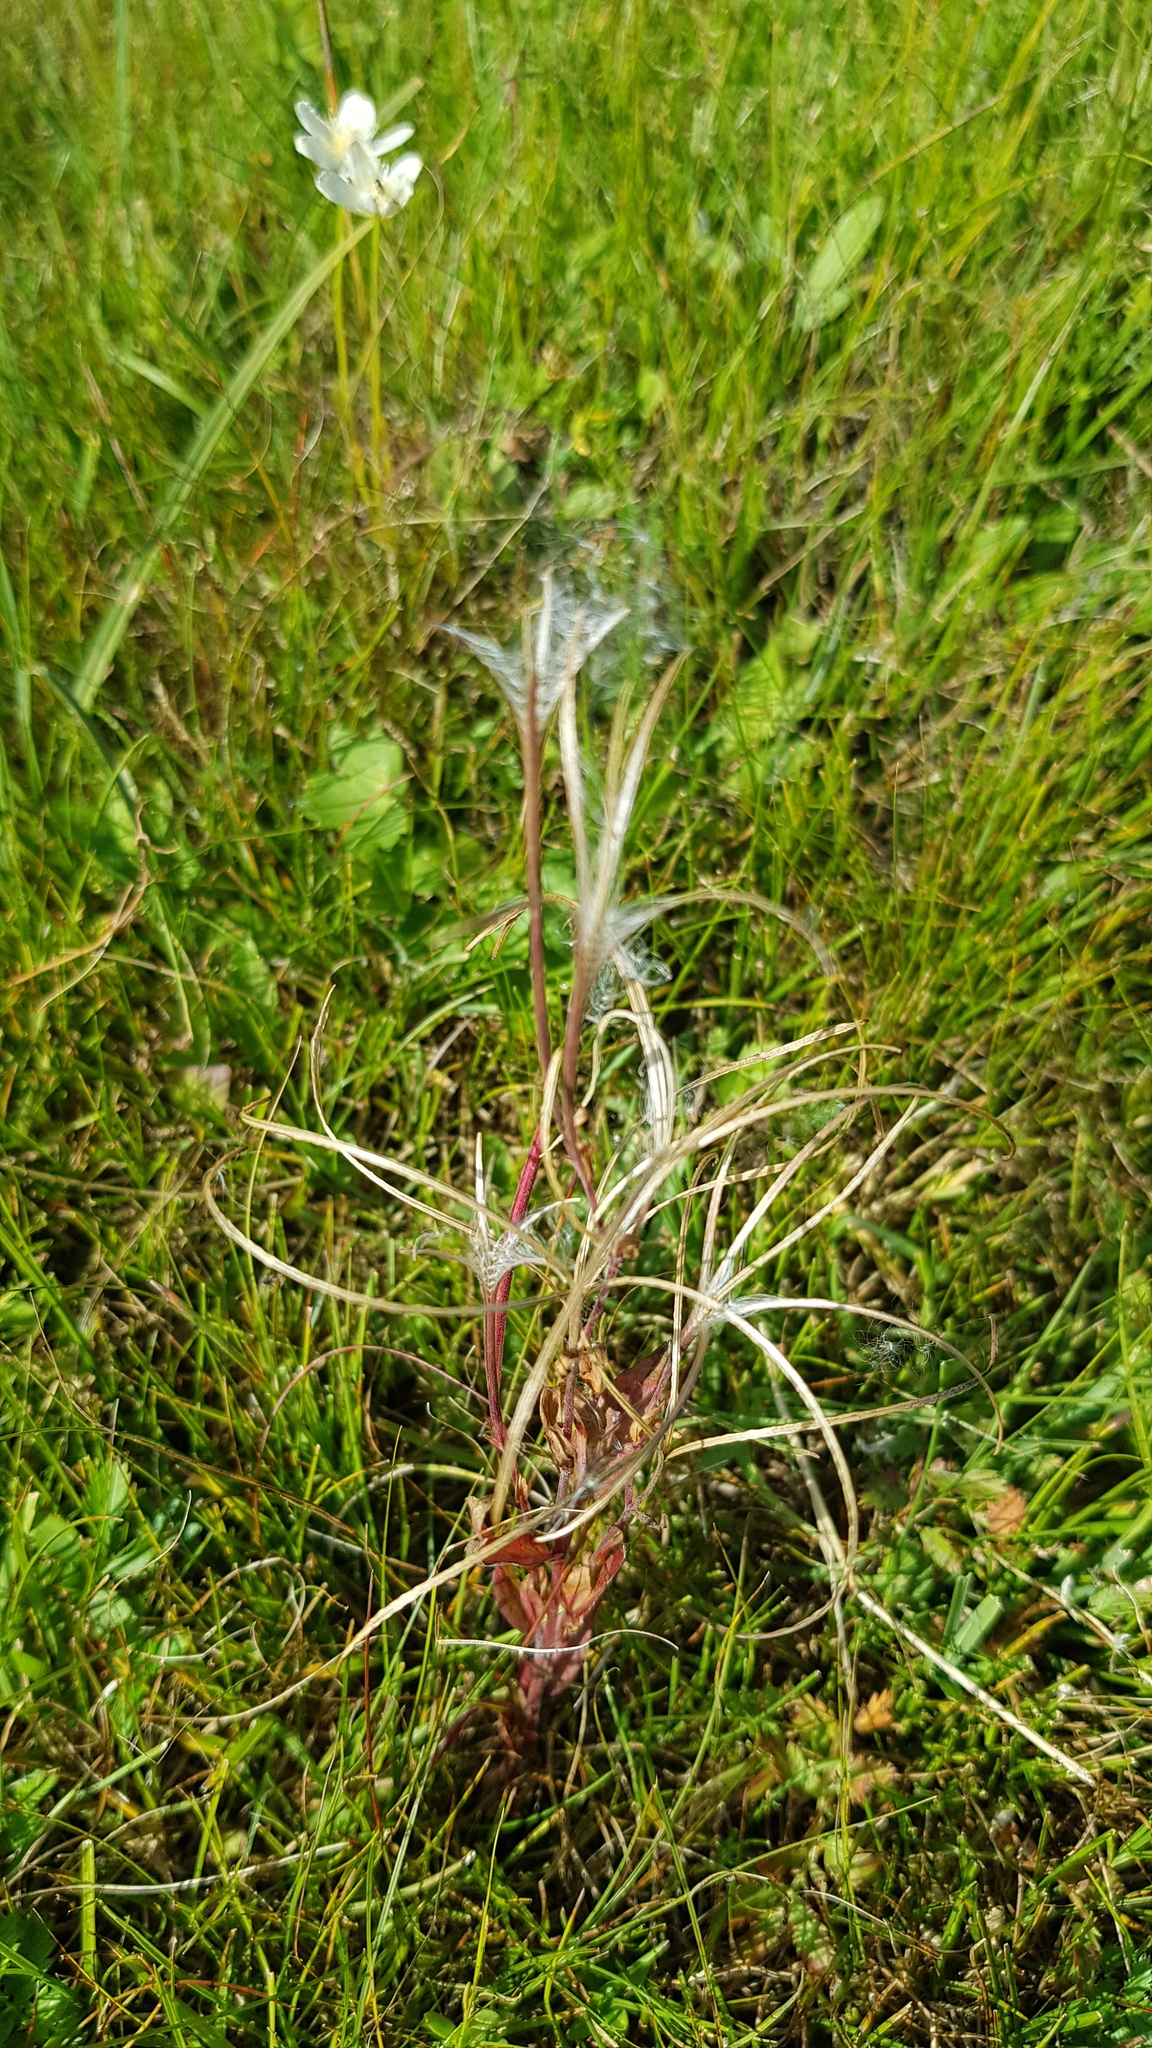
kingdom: Plantae
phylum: Tracheophyta
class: Magnoliopsida
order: Myrtales
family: Onagraceae
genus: Epilobium
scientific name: Epilobium palustre
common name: Marsh willowherb
